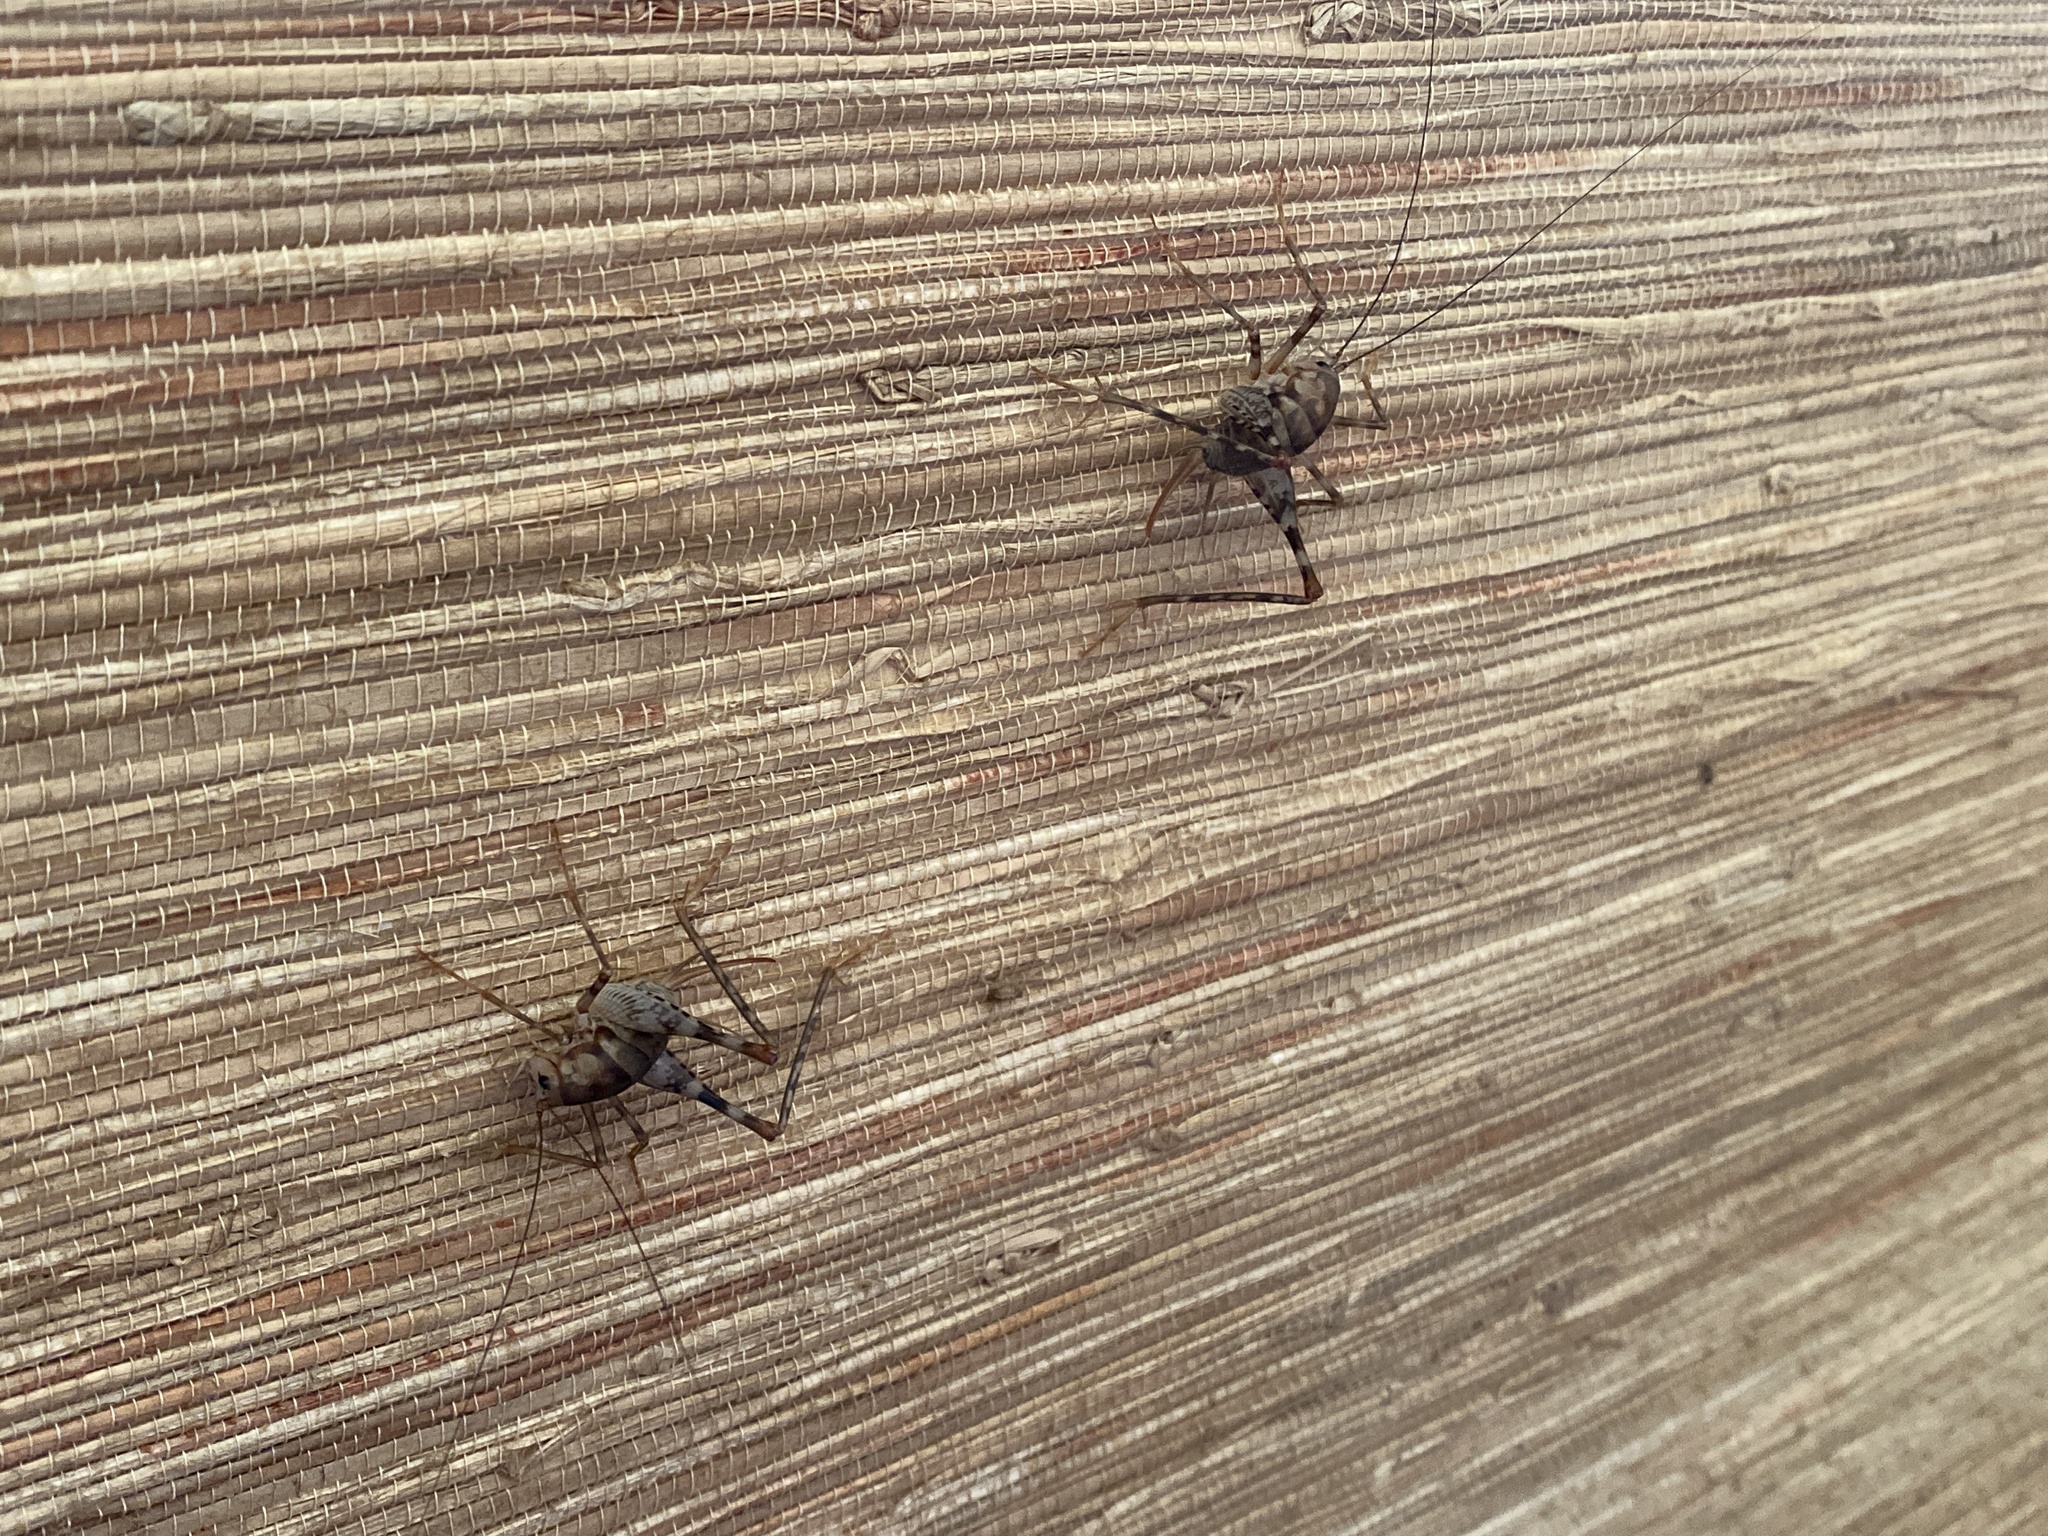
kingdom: Animalia
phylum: Arthropoda
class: Insecta
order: Orthoptera
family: Rhaphidophoridae
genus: Tachycines
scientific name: Tachycines asynamorus
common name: Greenhouse camel cricket
